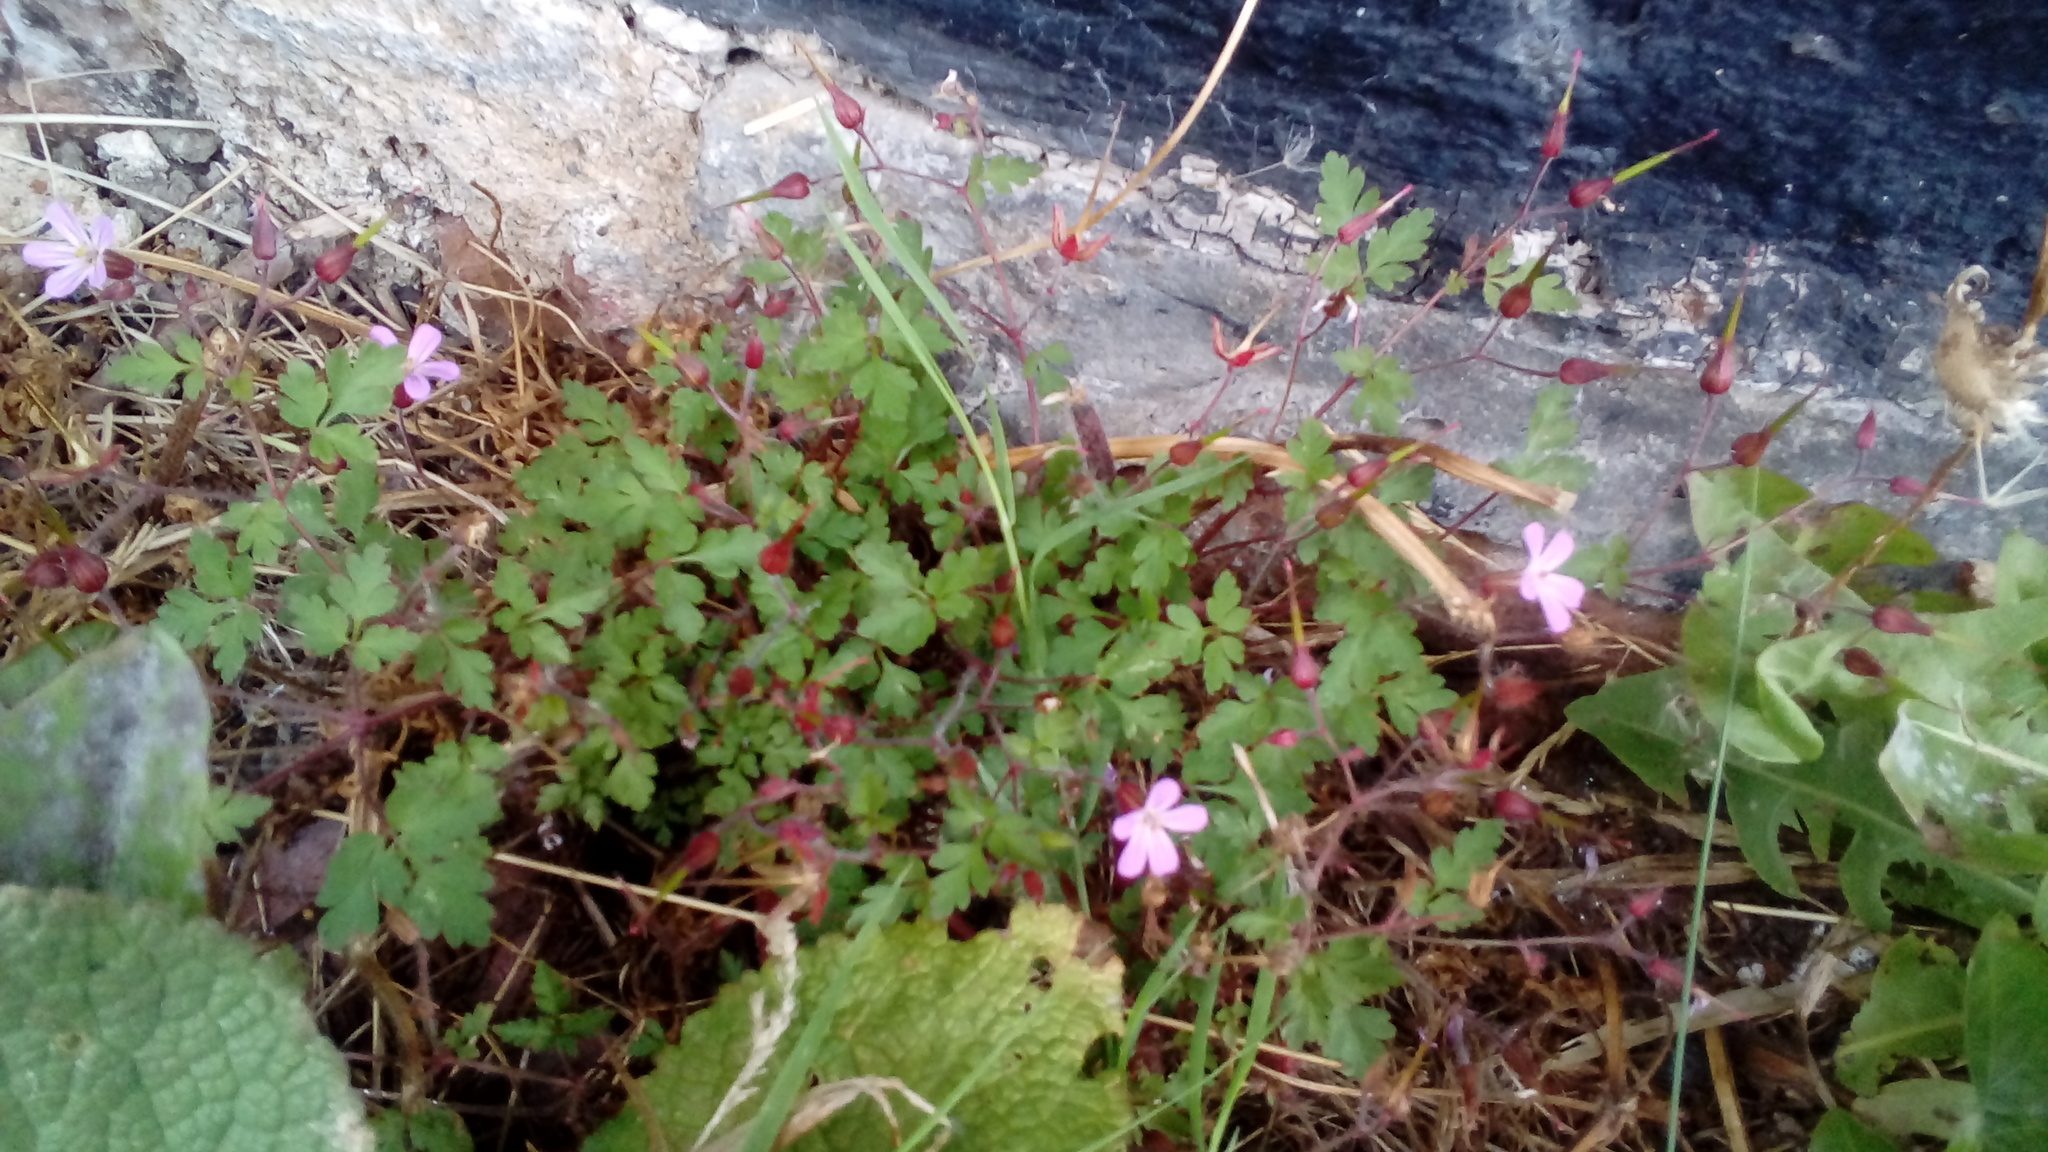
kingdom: Plantae
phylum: Tracheophyta
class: Magnoliopsida
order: Geraniales
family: Geraniaceae
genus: Geranium
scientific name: Geranium robertianum
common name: Herb-robert
